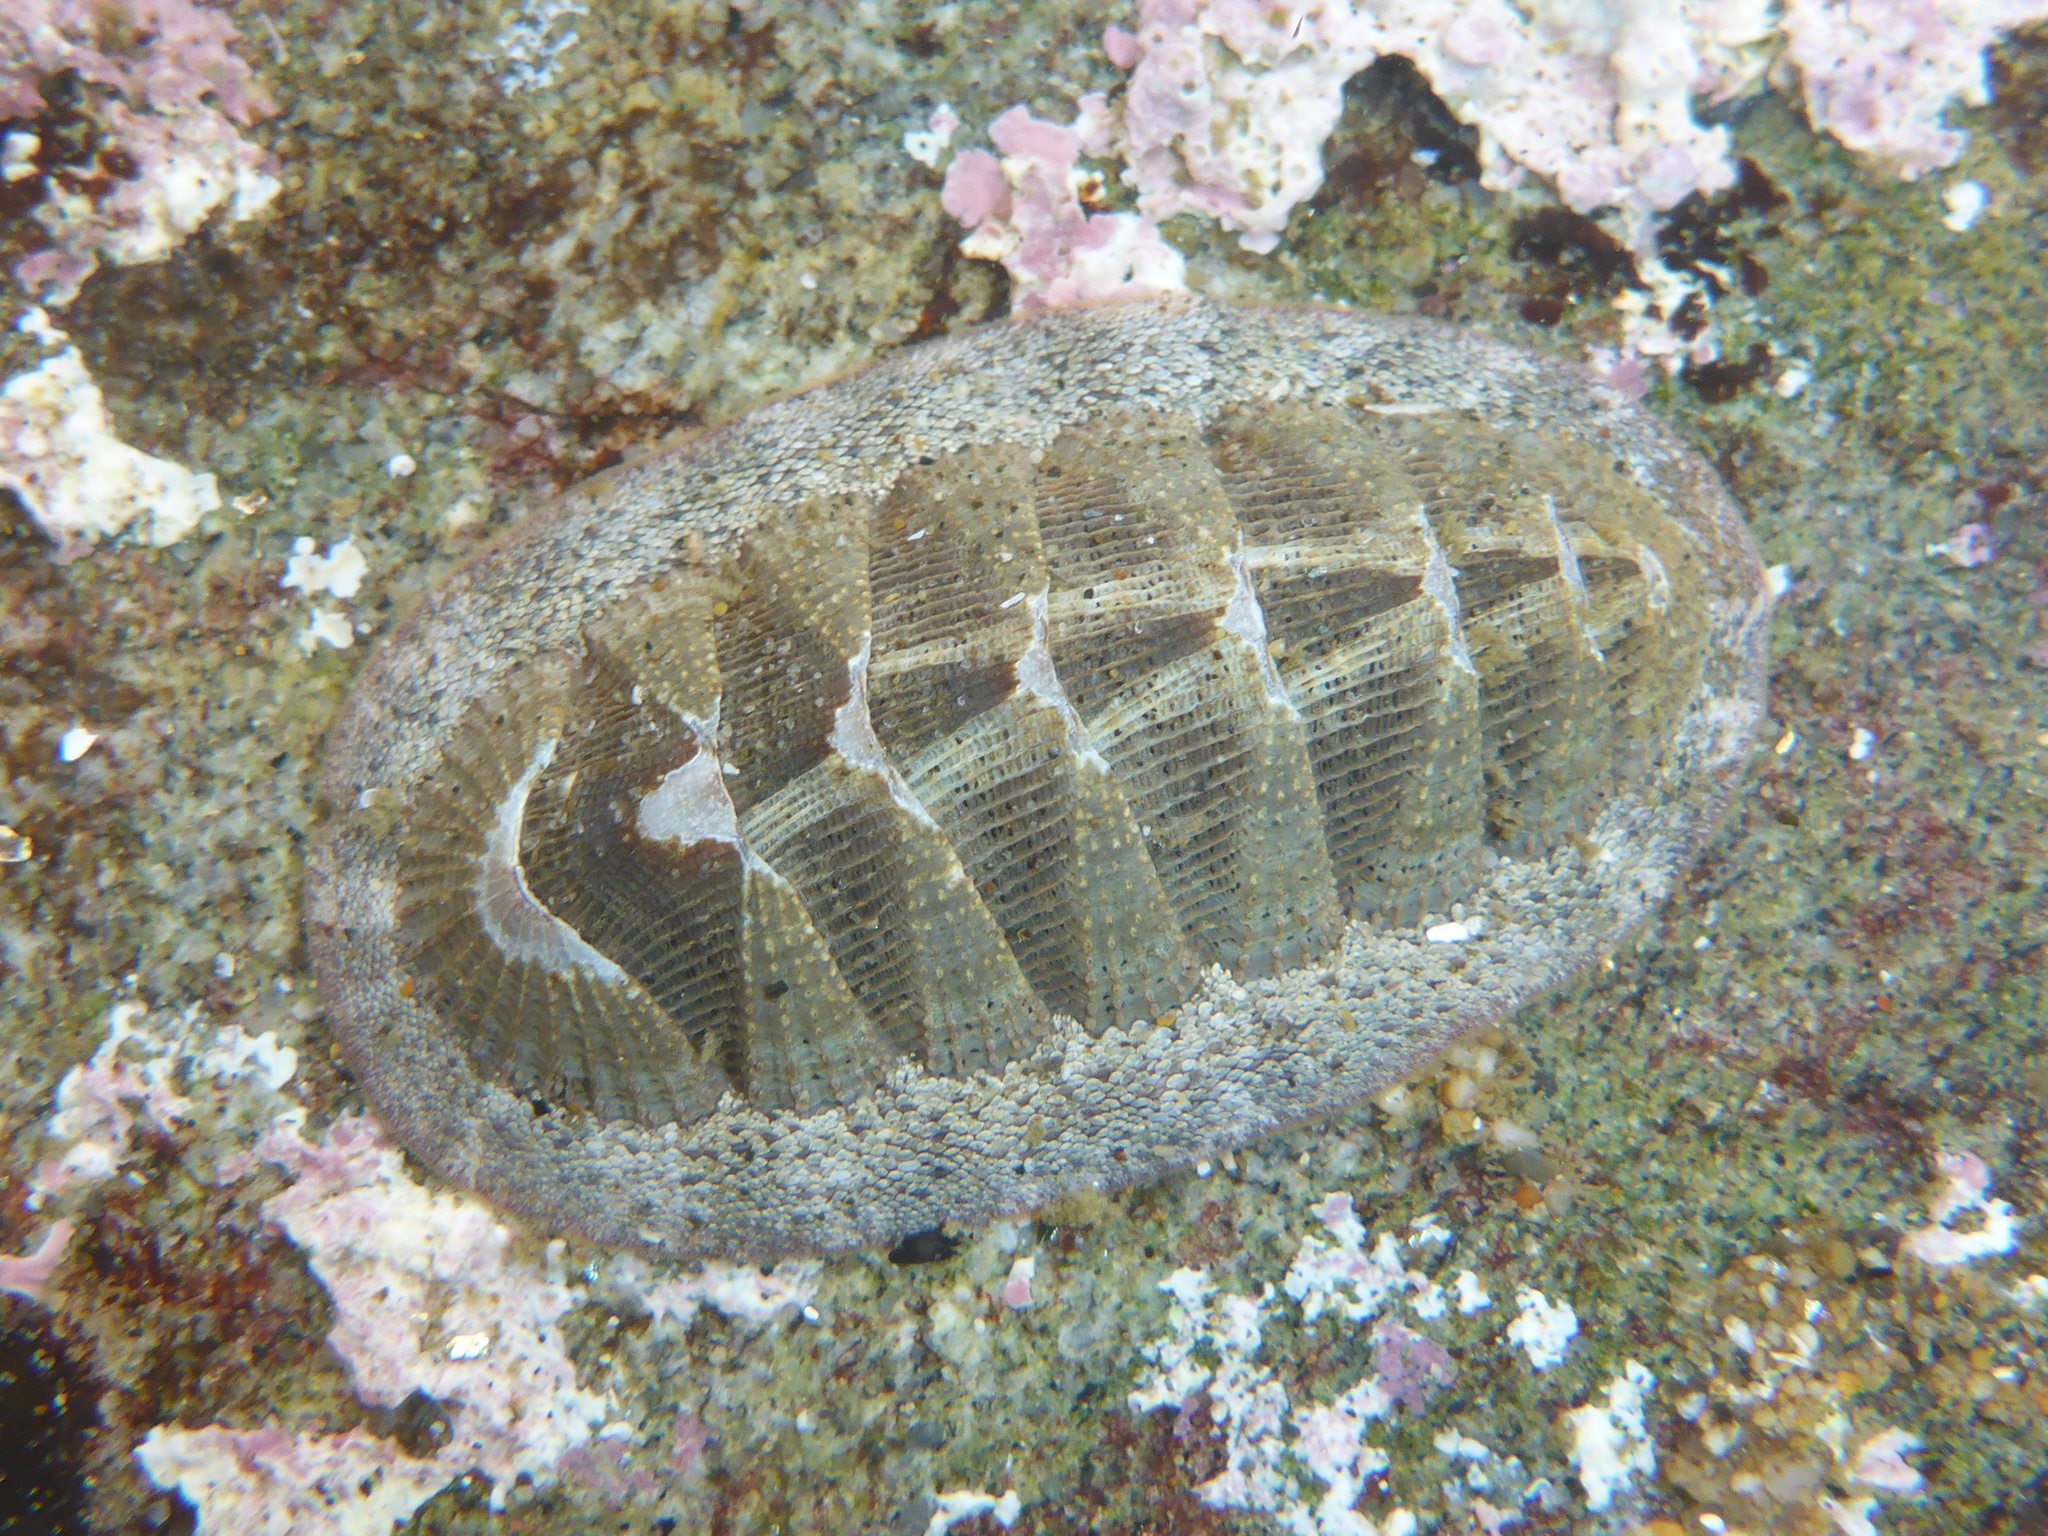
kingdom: Animalia
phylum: Mollusca
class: Polyplacophora
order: Chitonida
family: Ischnochitonidae
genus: Lepidozona
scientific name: Lepidozona cooperi
